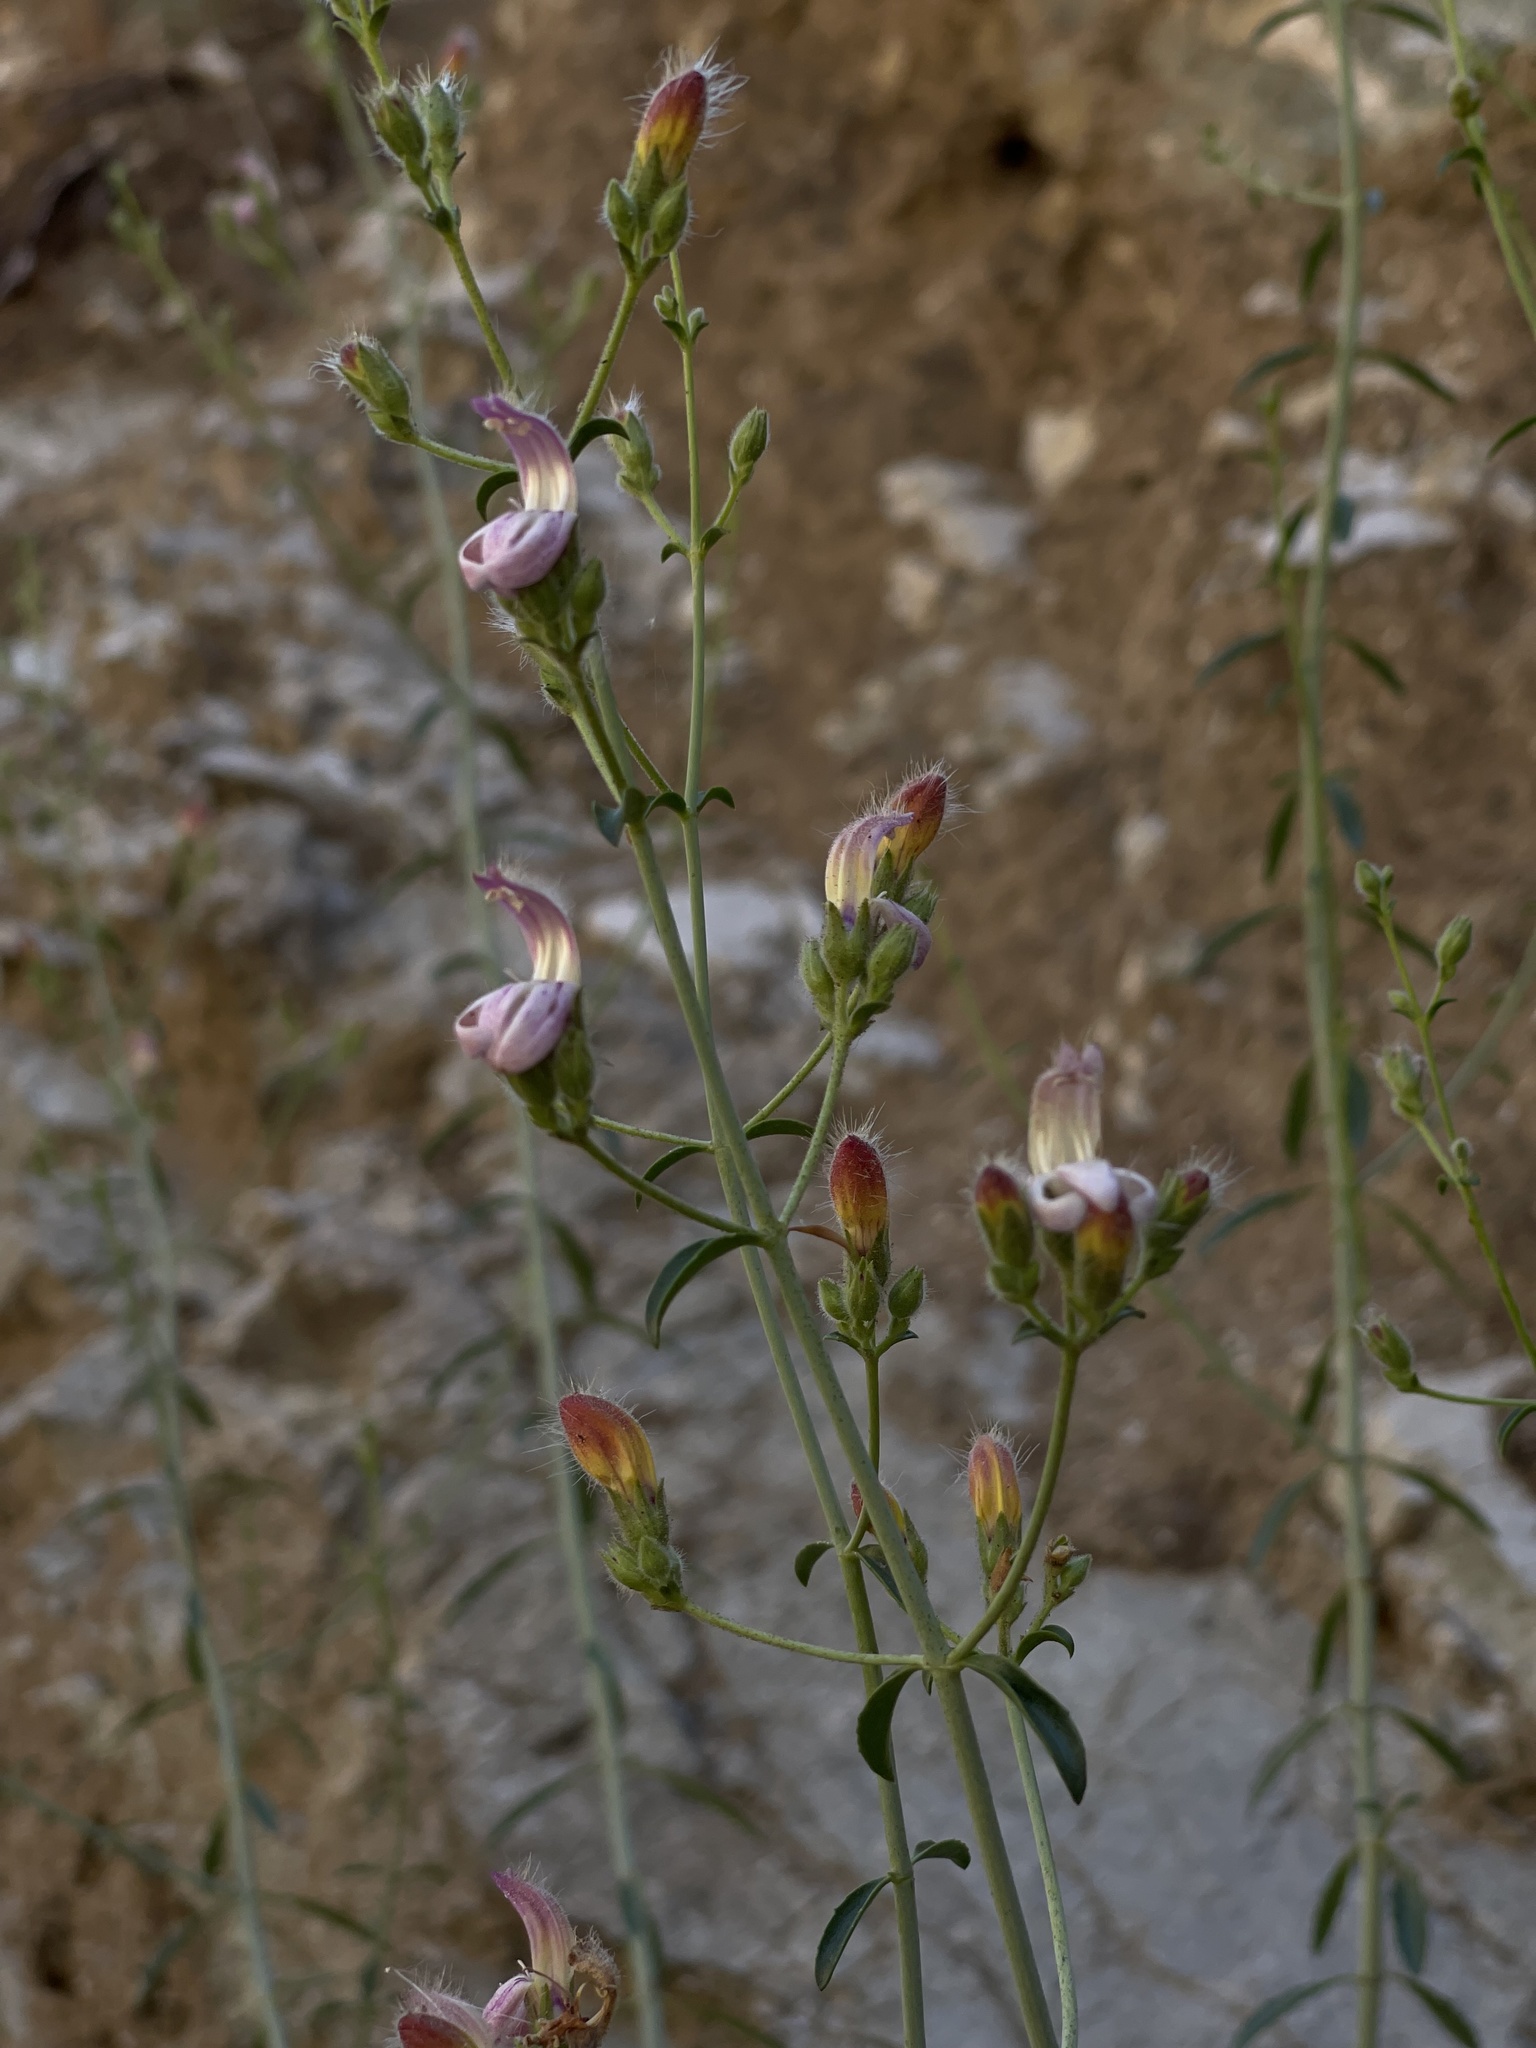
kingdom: Plantae
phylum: Tracheophyta
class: Magnoliopsida
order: Lamiales
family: Plantaginaceae
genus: Keckiella
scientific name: Keckiella breviflora
